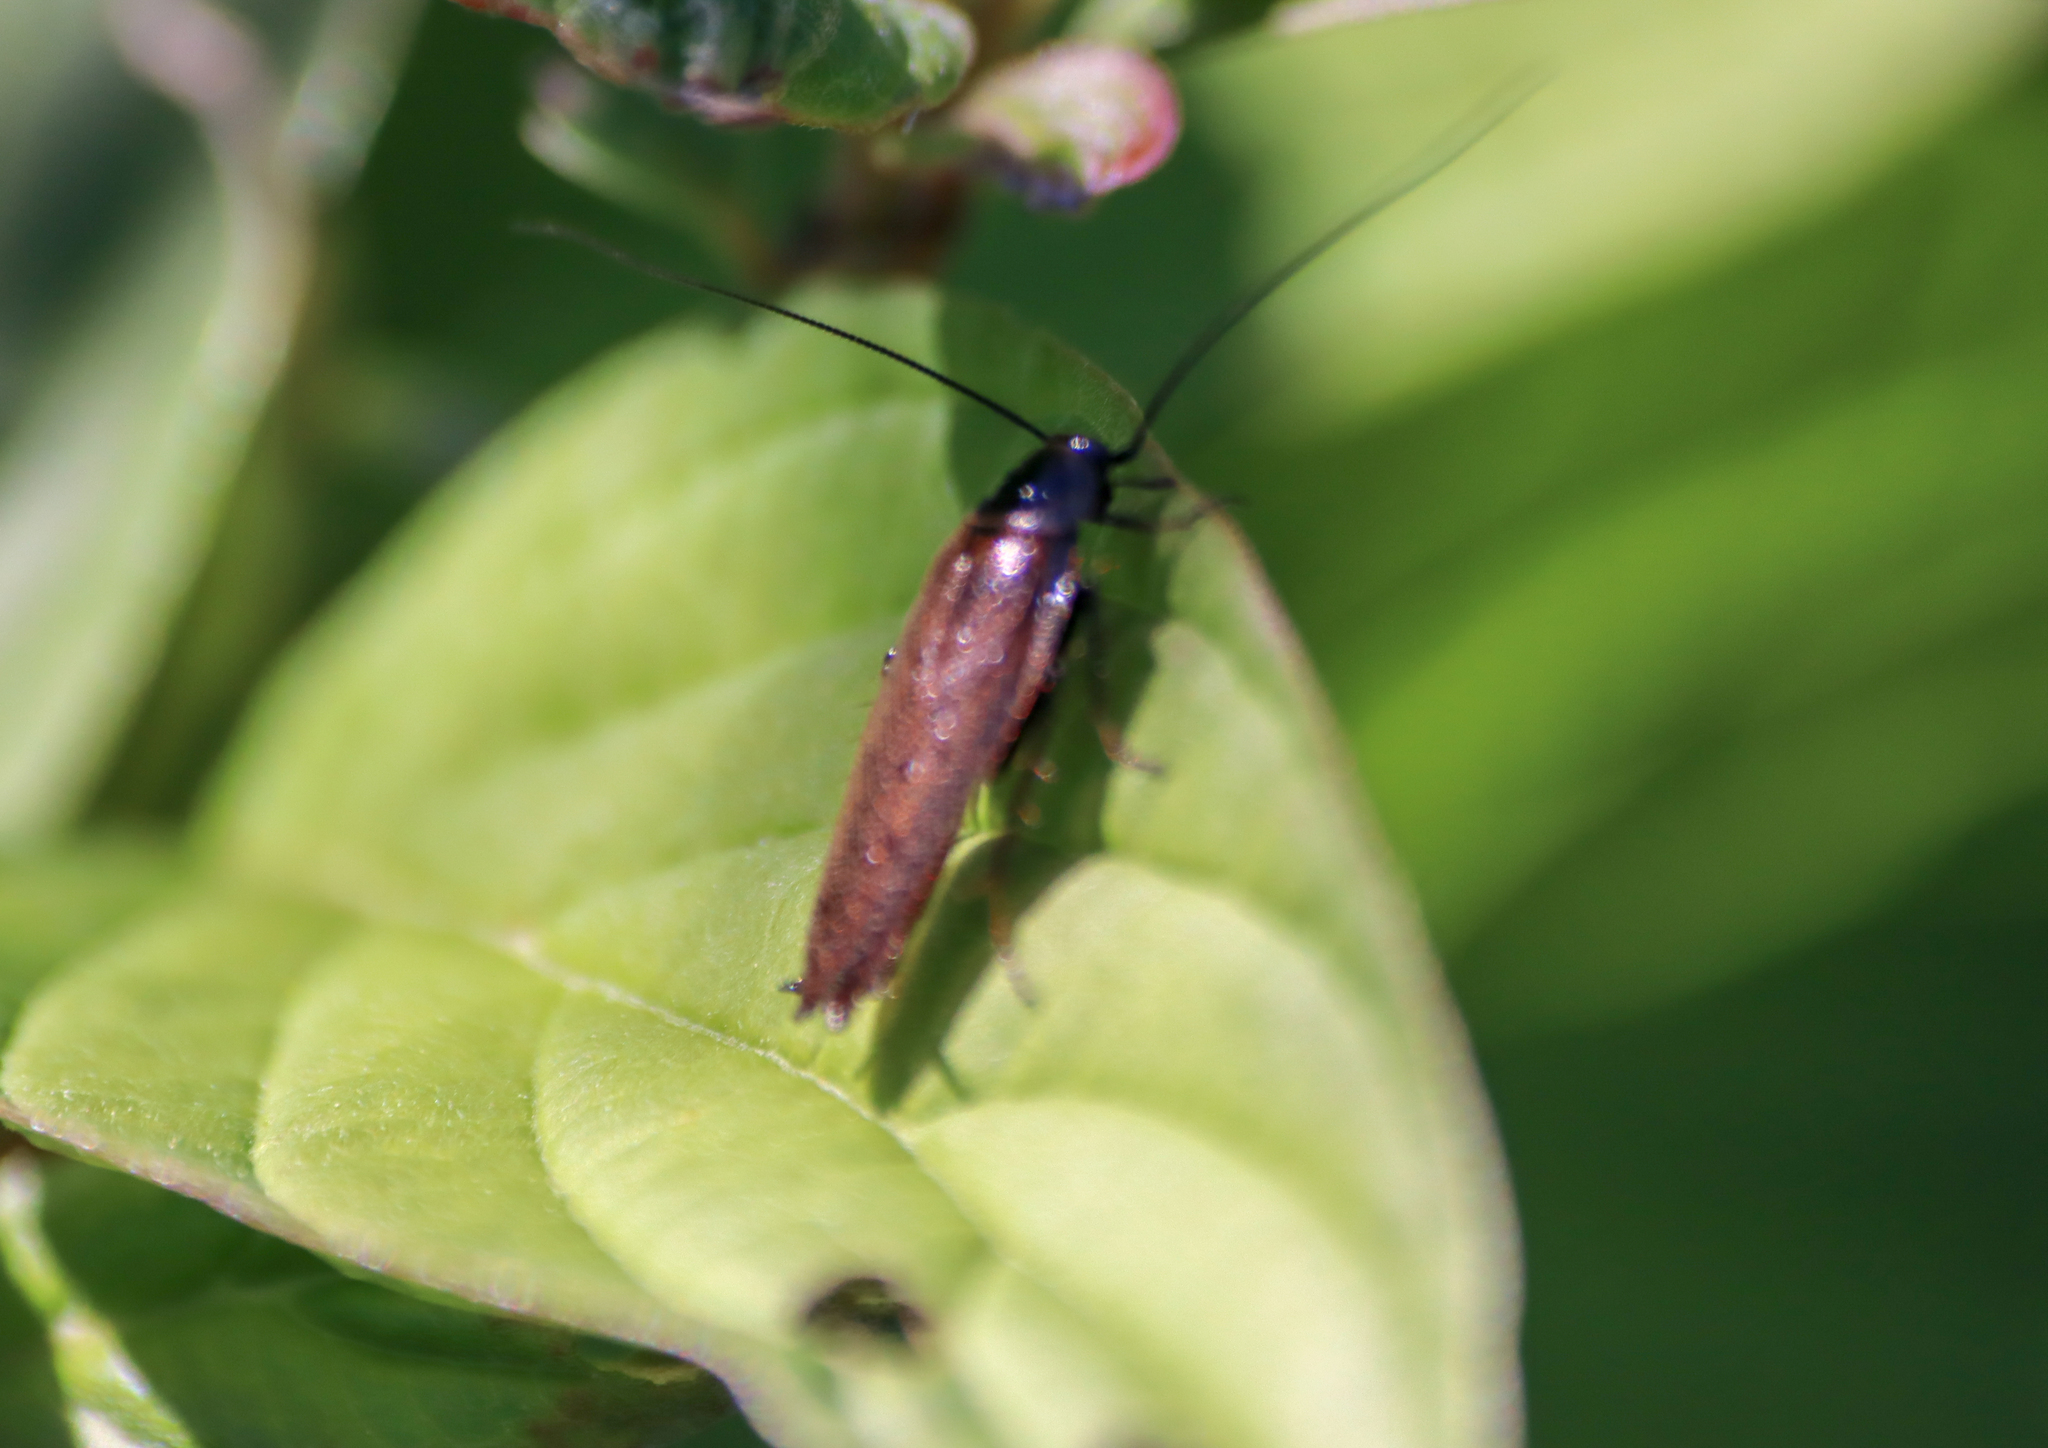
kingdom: Animalia
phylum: Arthropoda
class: Insecta
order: Blattodea
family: Ectobiidae
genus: Ectobius
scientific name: Ectobius lapponicus
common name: Dusky cockroach
